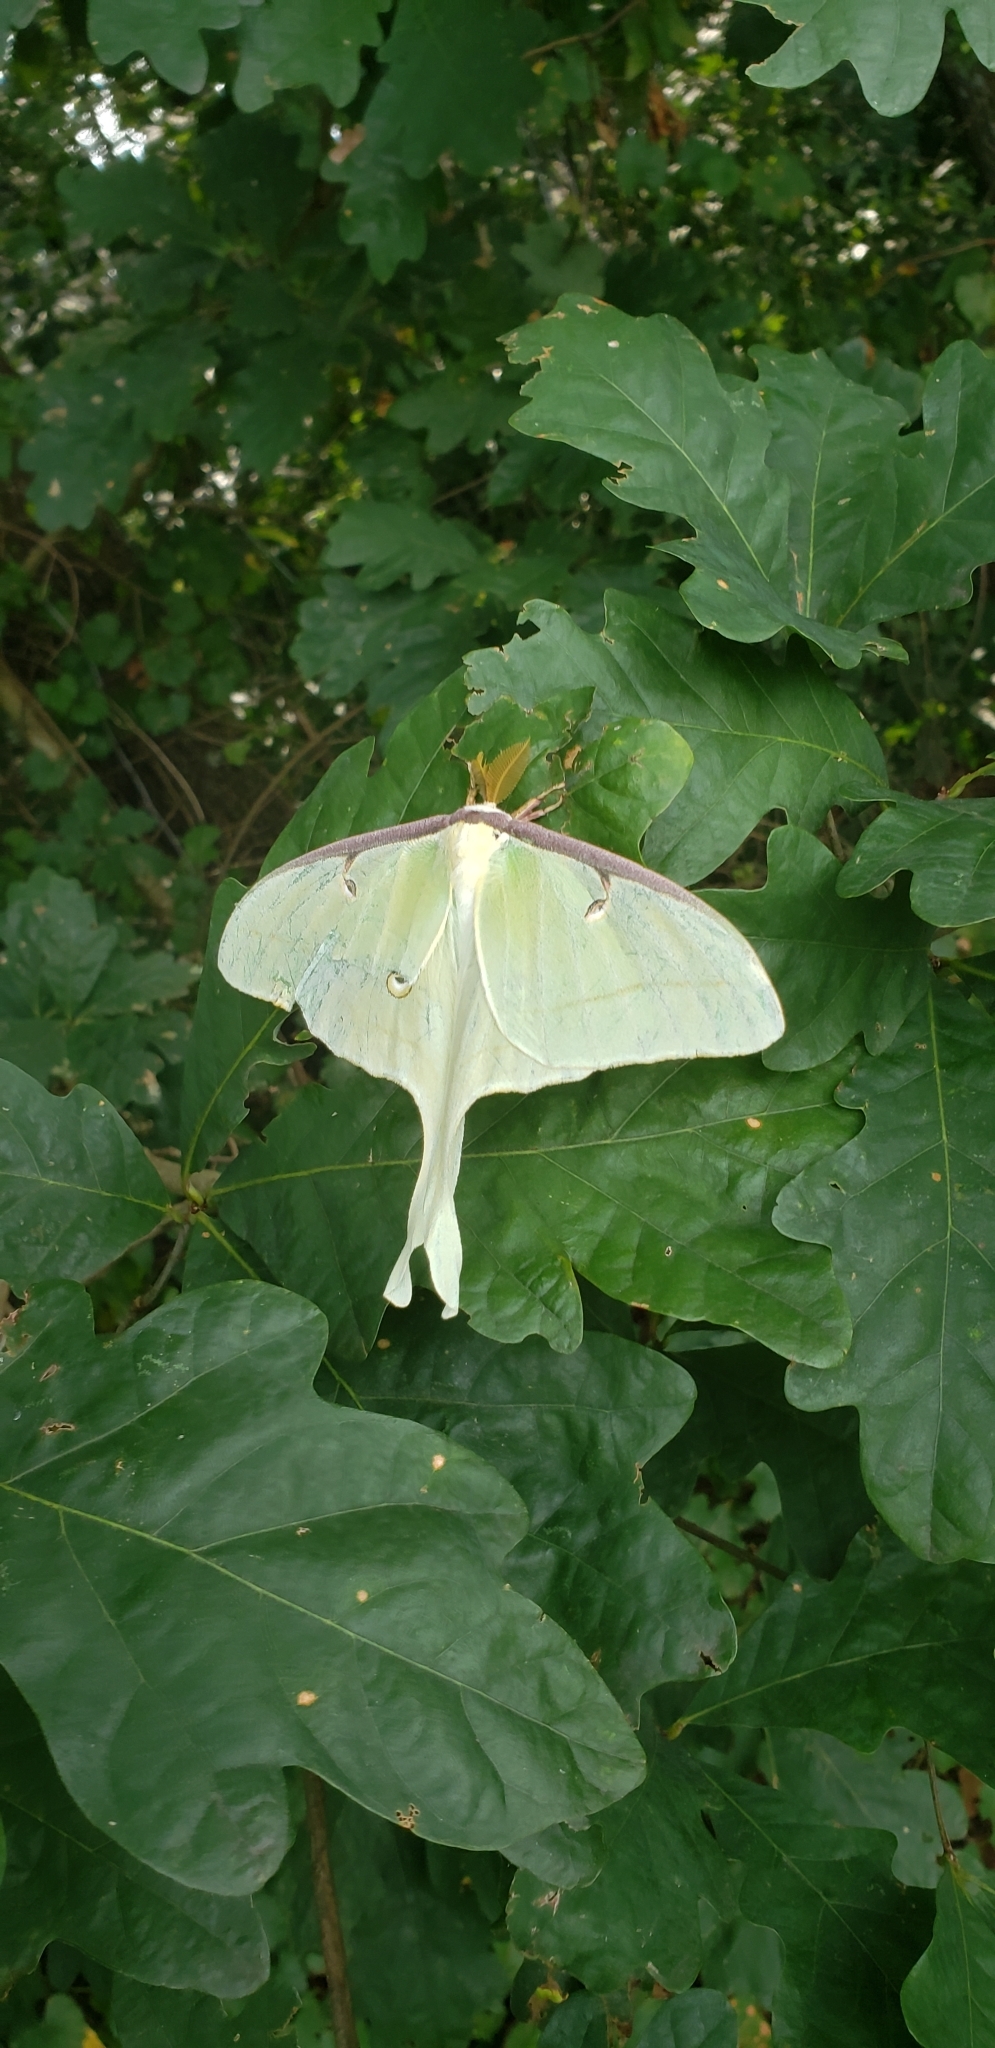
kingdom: Animalia
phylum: Arthropoda
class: Insecta
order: Lepidoptera
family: Saturniidae
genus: Actias
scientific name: Actias luna
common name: Luna moth
